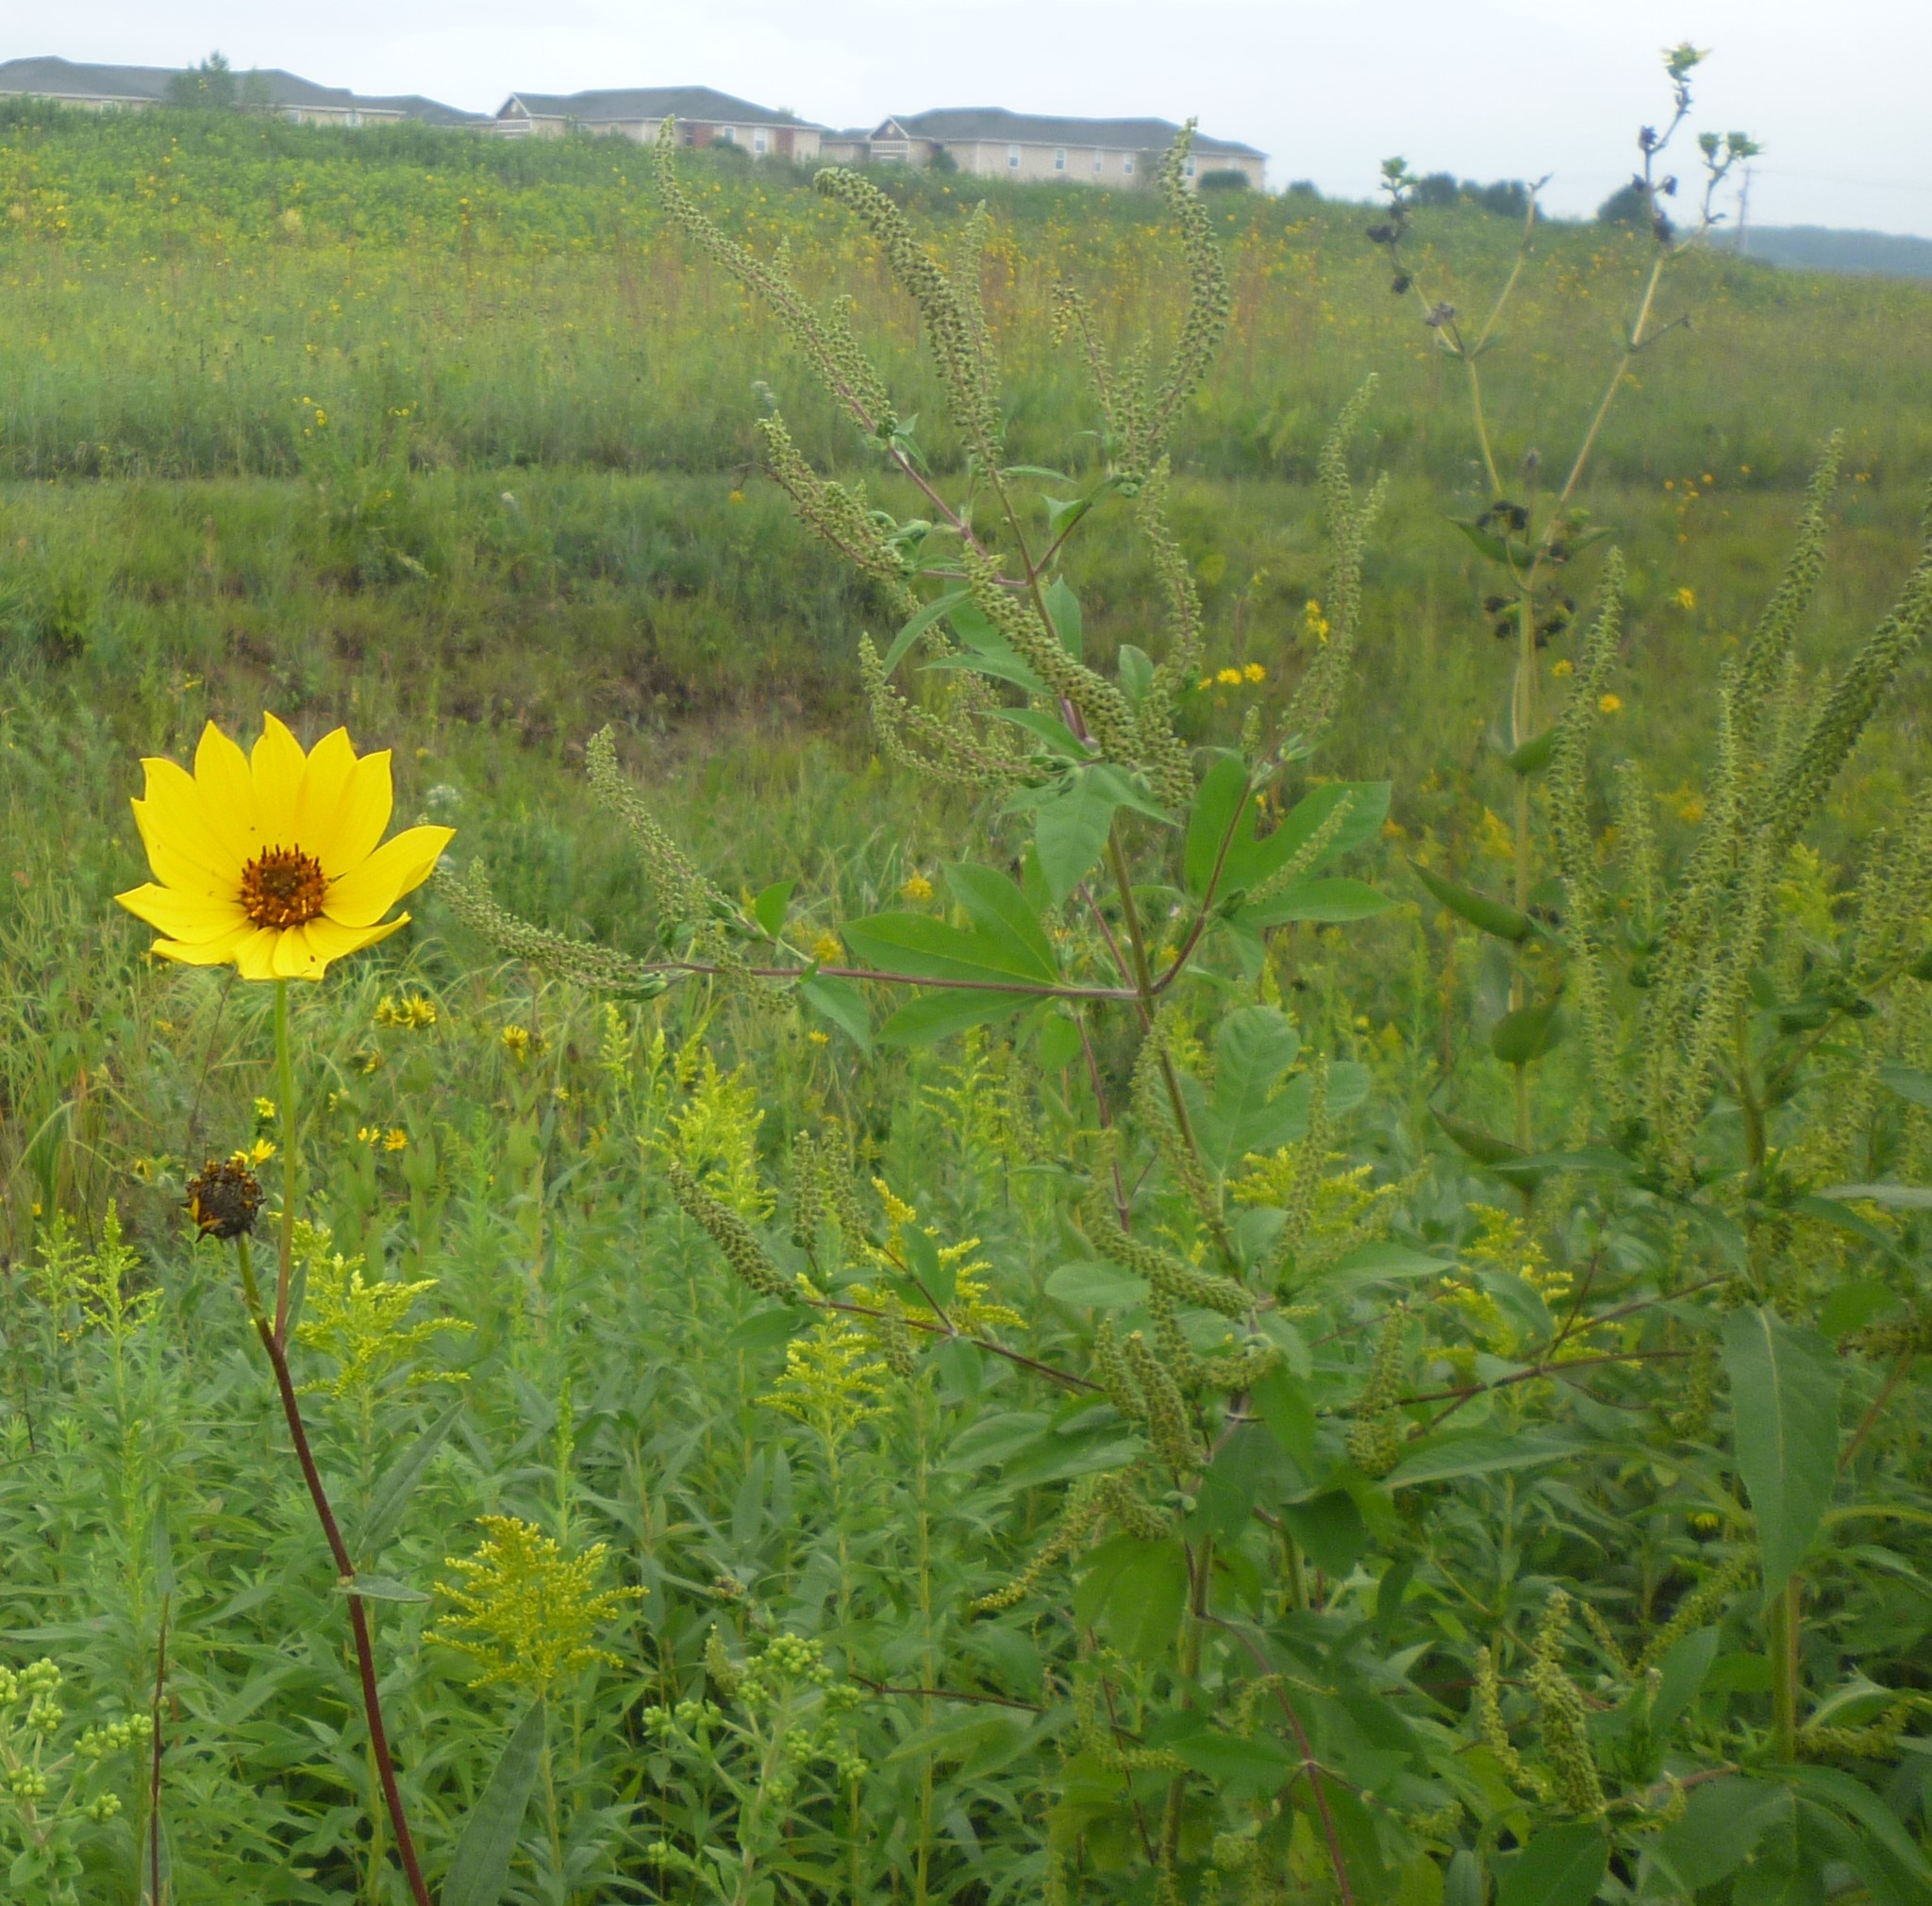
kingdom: Plantae
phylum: Tracheophyta
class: Magnoliopsida
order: Asterales
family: Asteraceae
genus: Ambrosia
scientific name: Ambrosia trifida
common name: Giant ragweed
